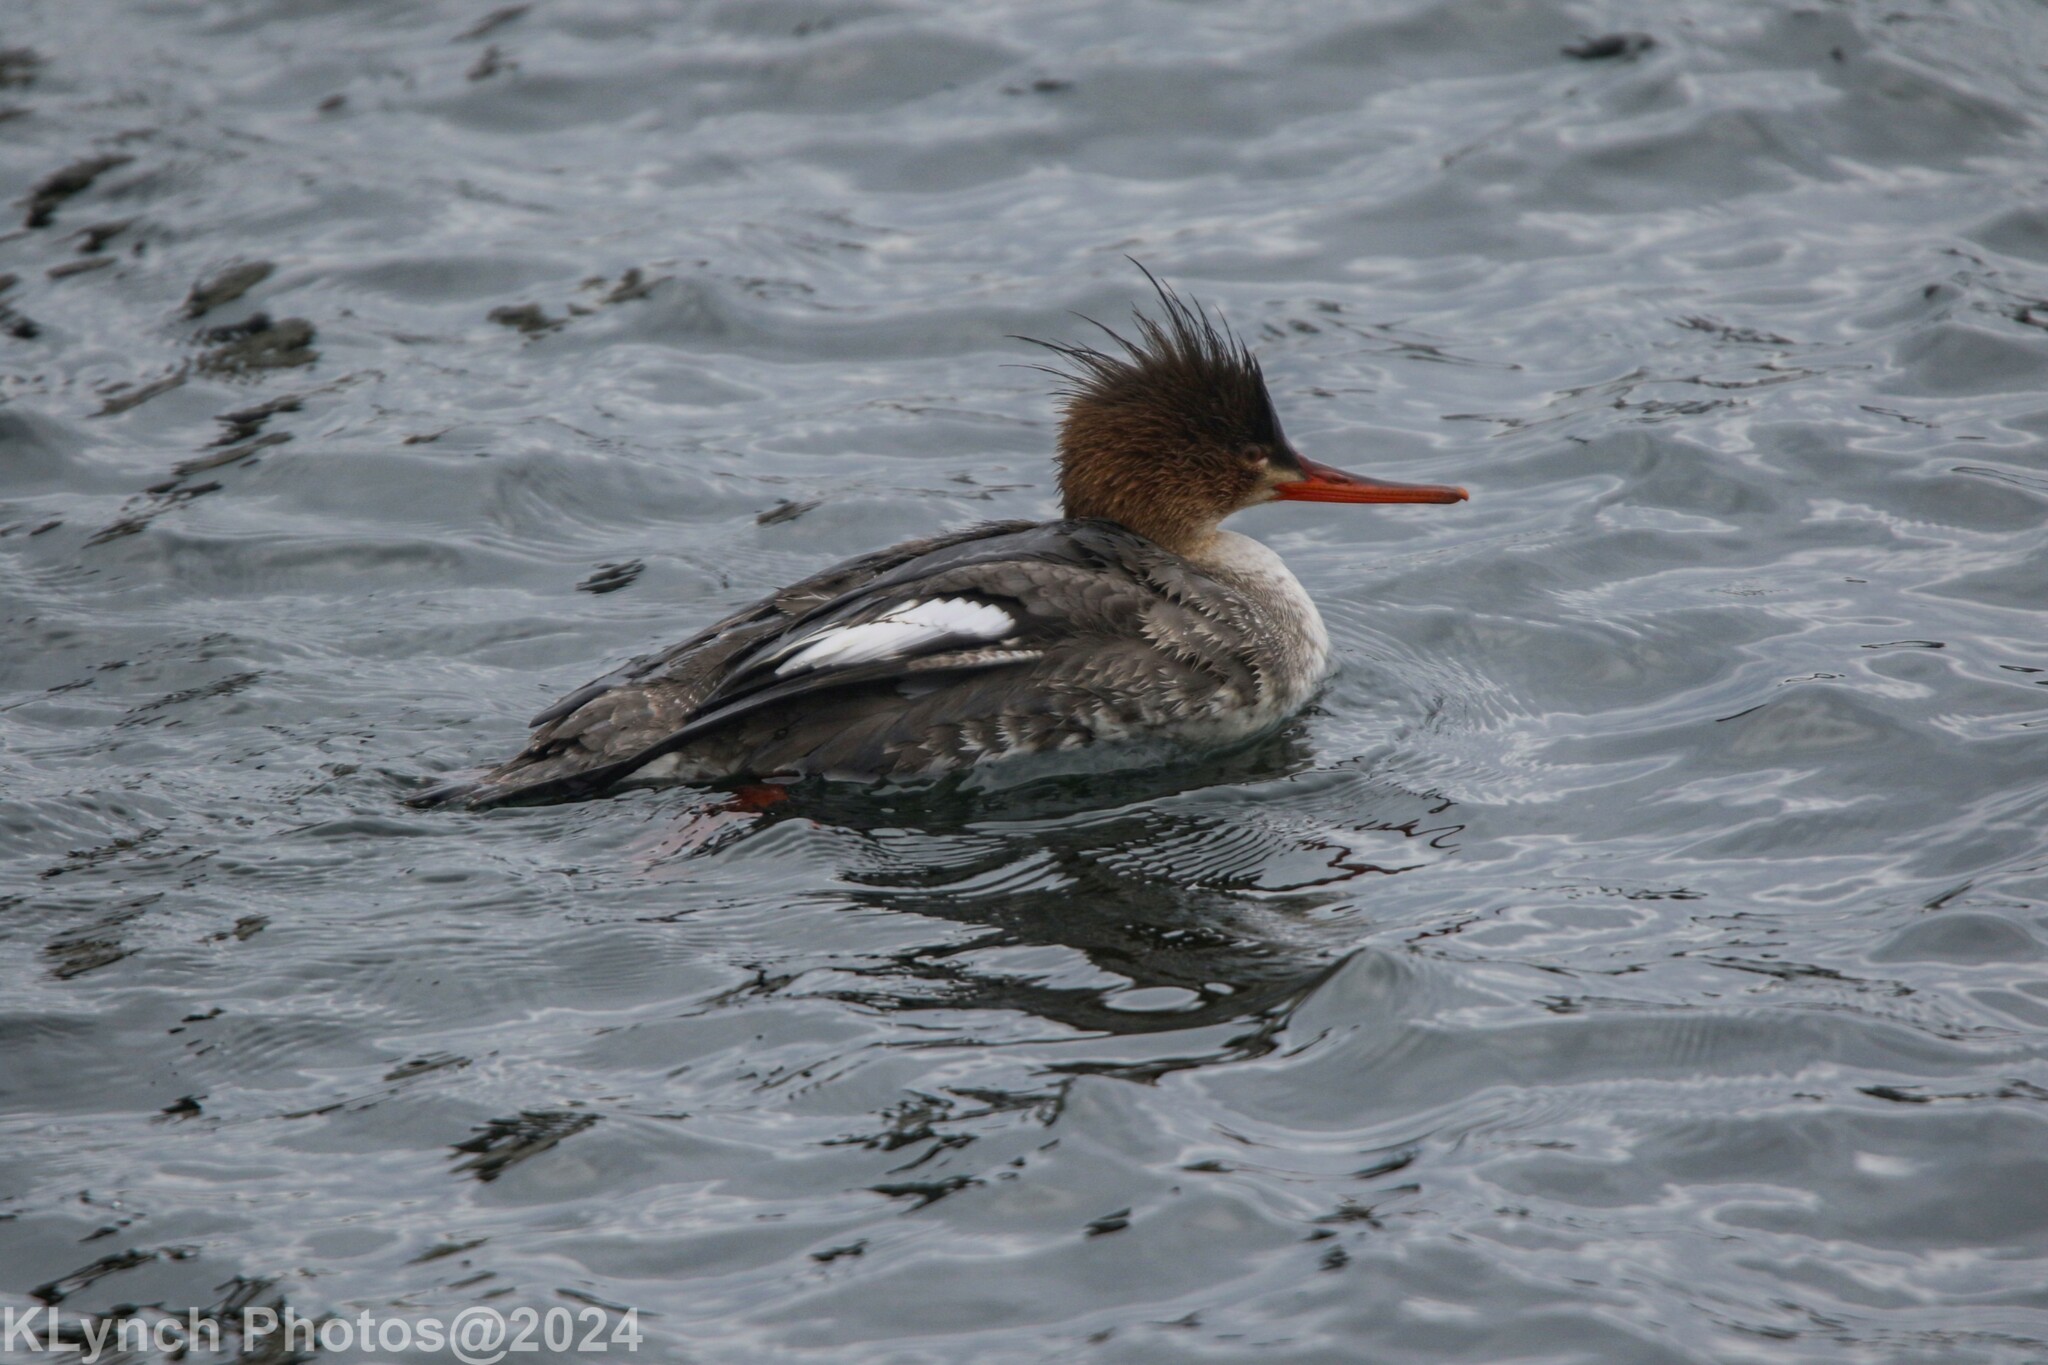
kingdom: Animalia
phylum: Chordata
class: Aves
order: Anseriformes
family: Anatidae
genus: Mergus
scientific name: Mergus serrator
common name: Red-breasted merganser
